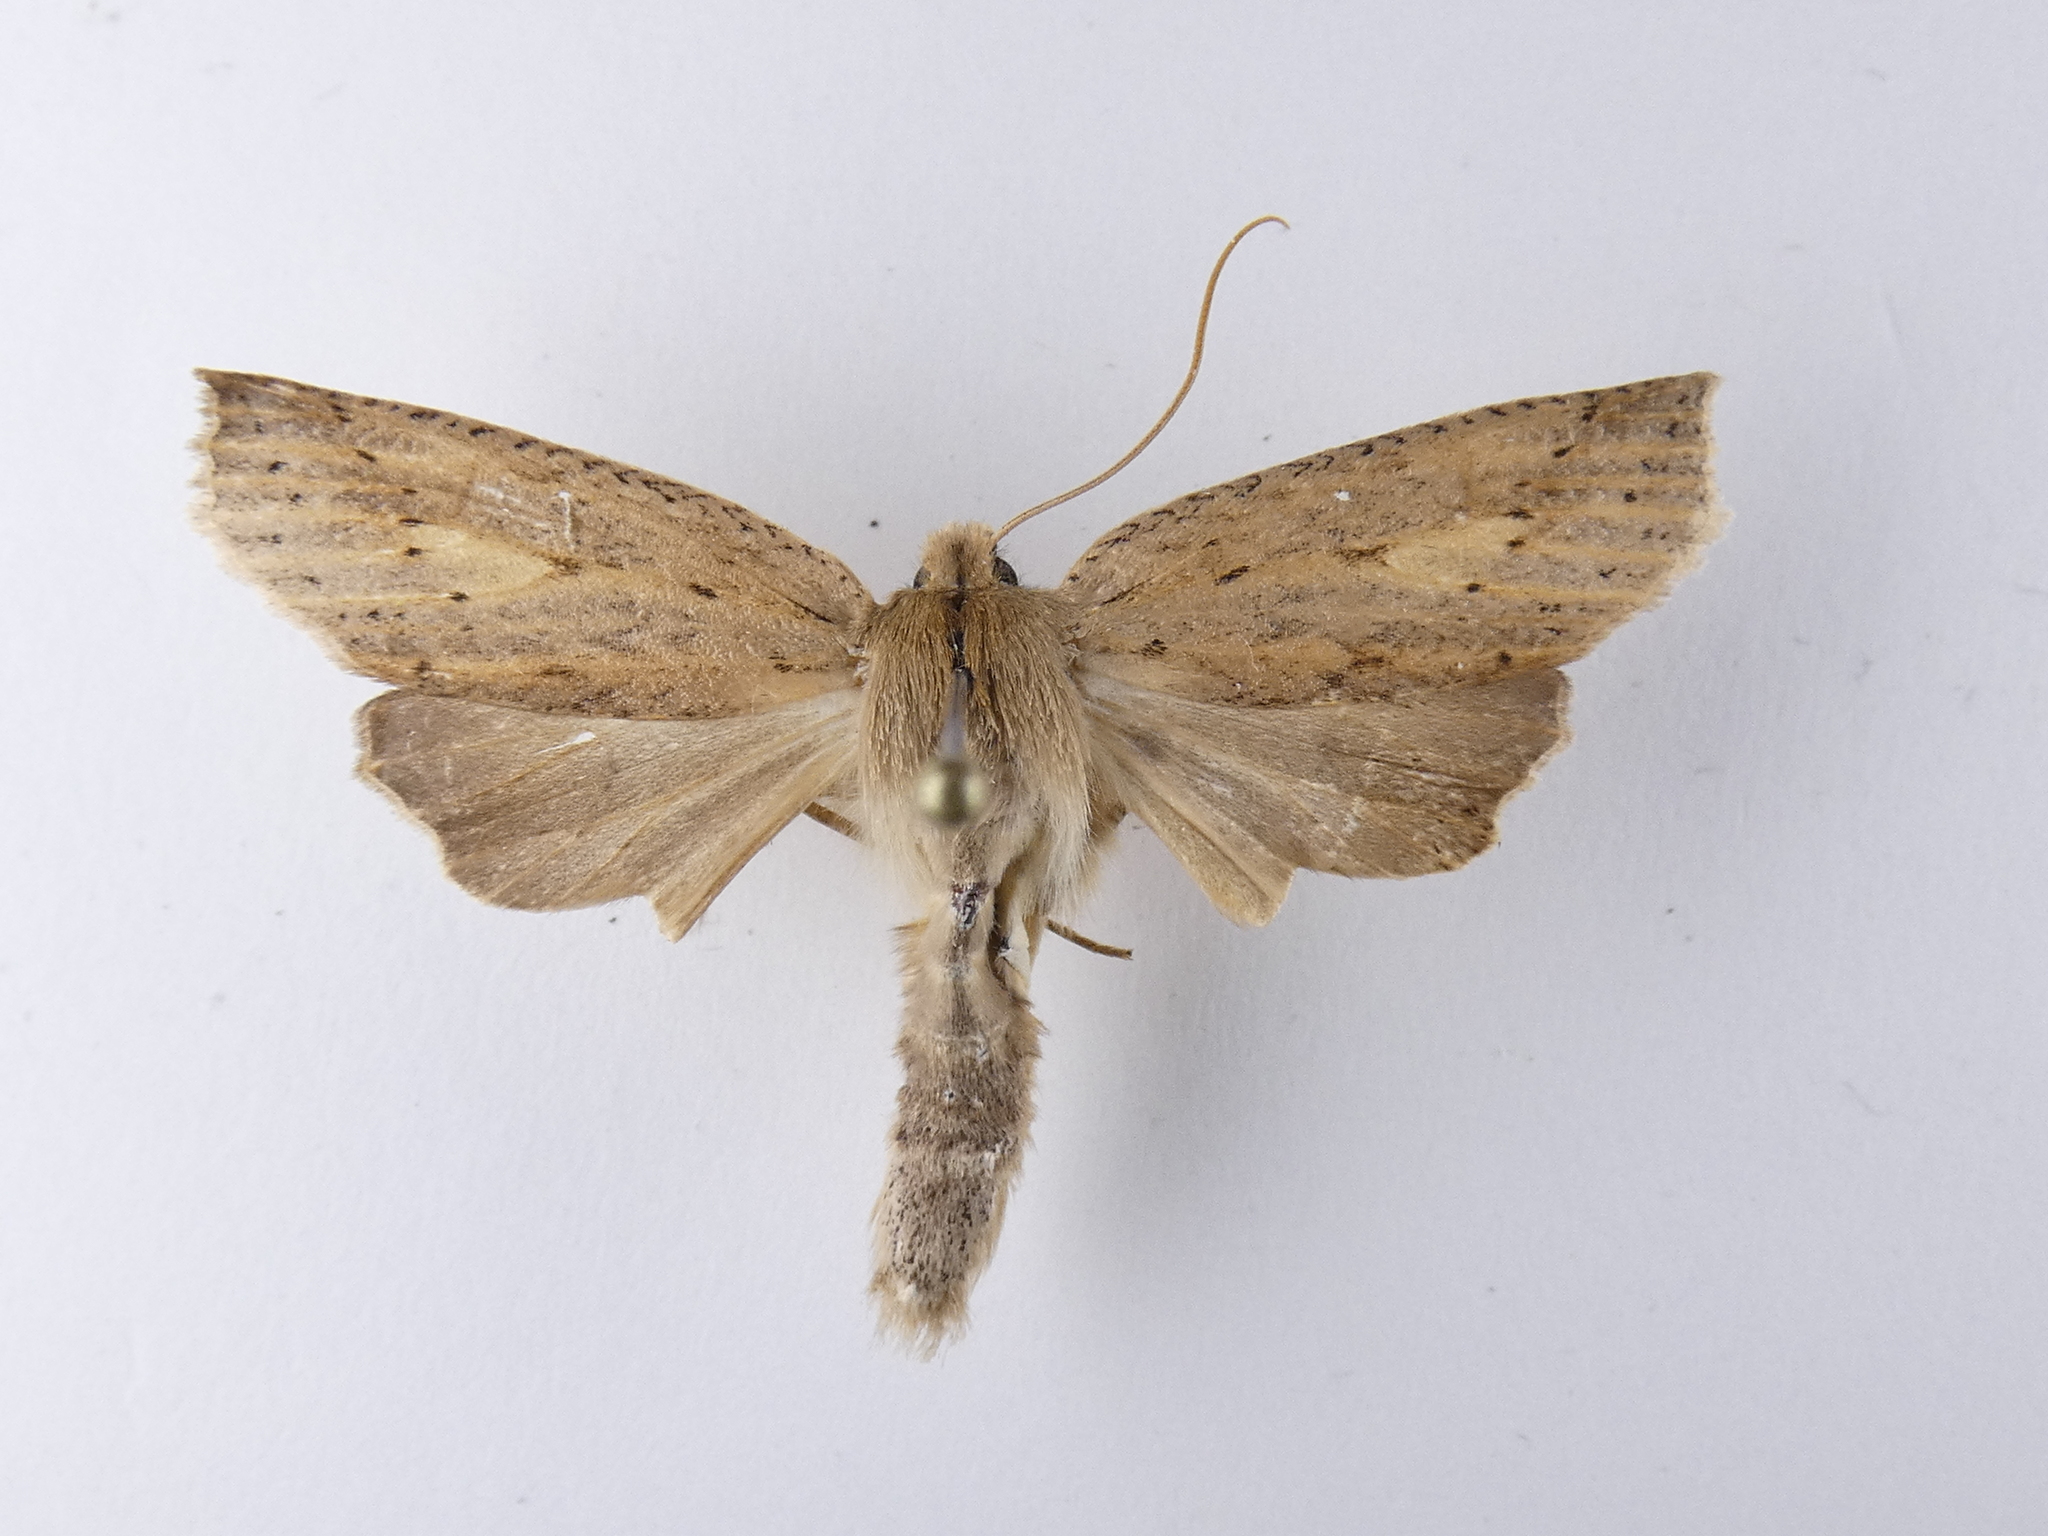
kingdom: Animalia
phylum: Arthropoda
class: Insecta
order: Lepidoptera
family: Geometridae
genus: Declana
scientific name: Declana leptomera
